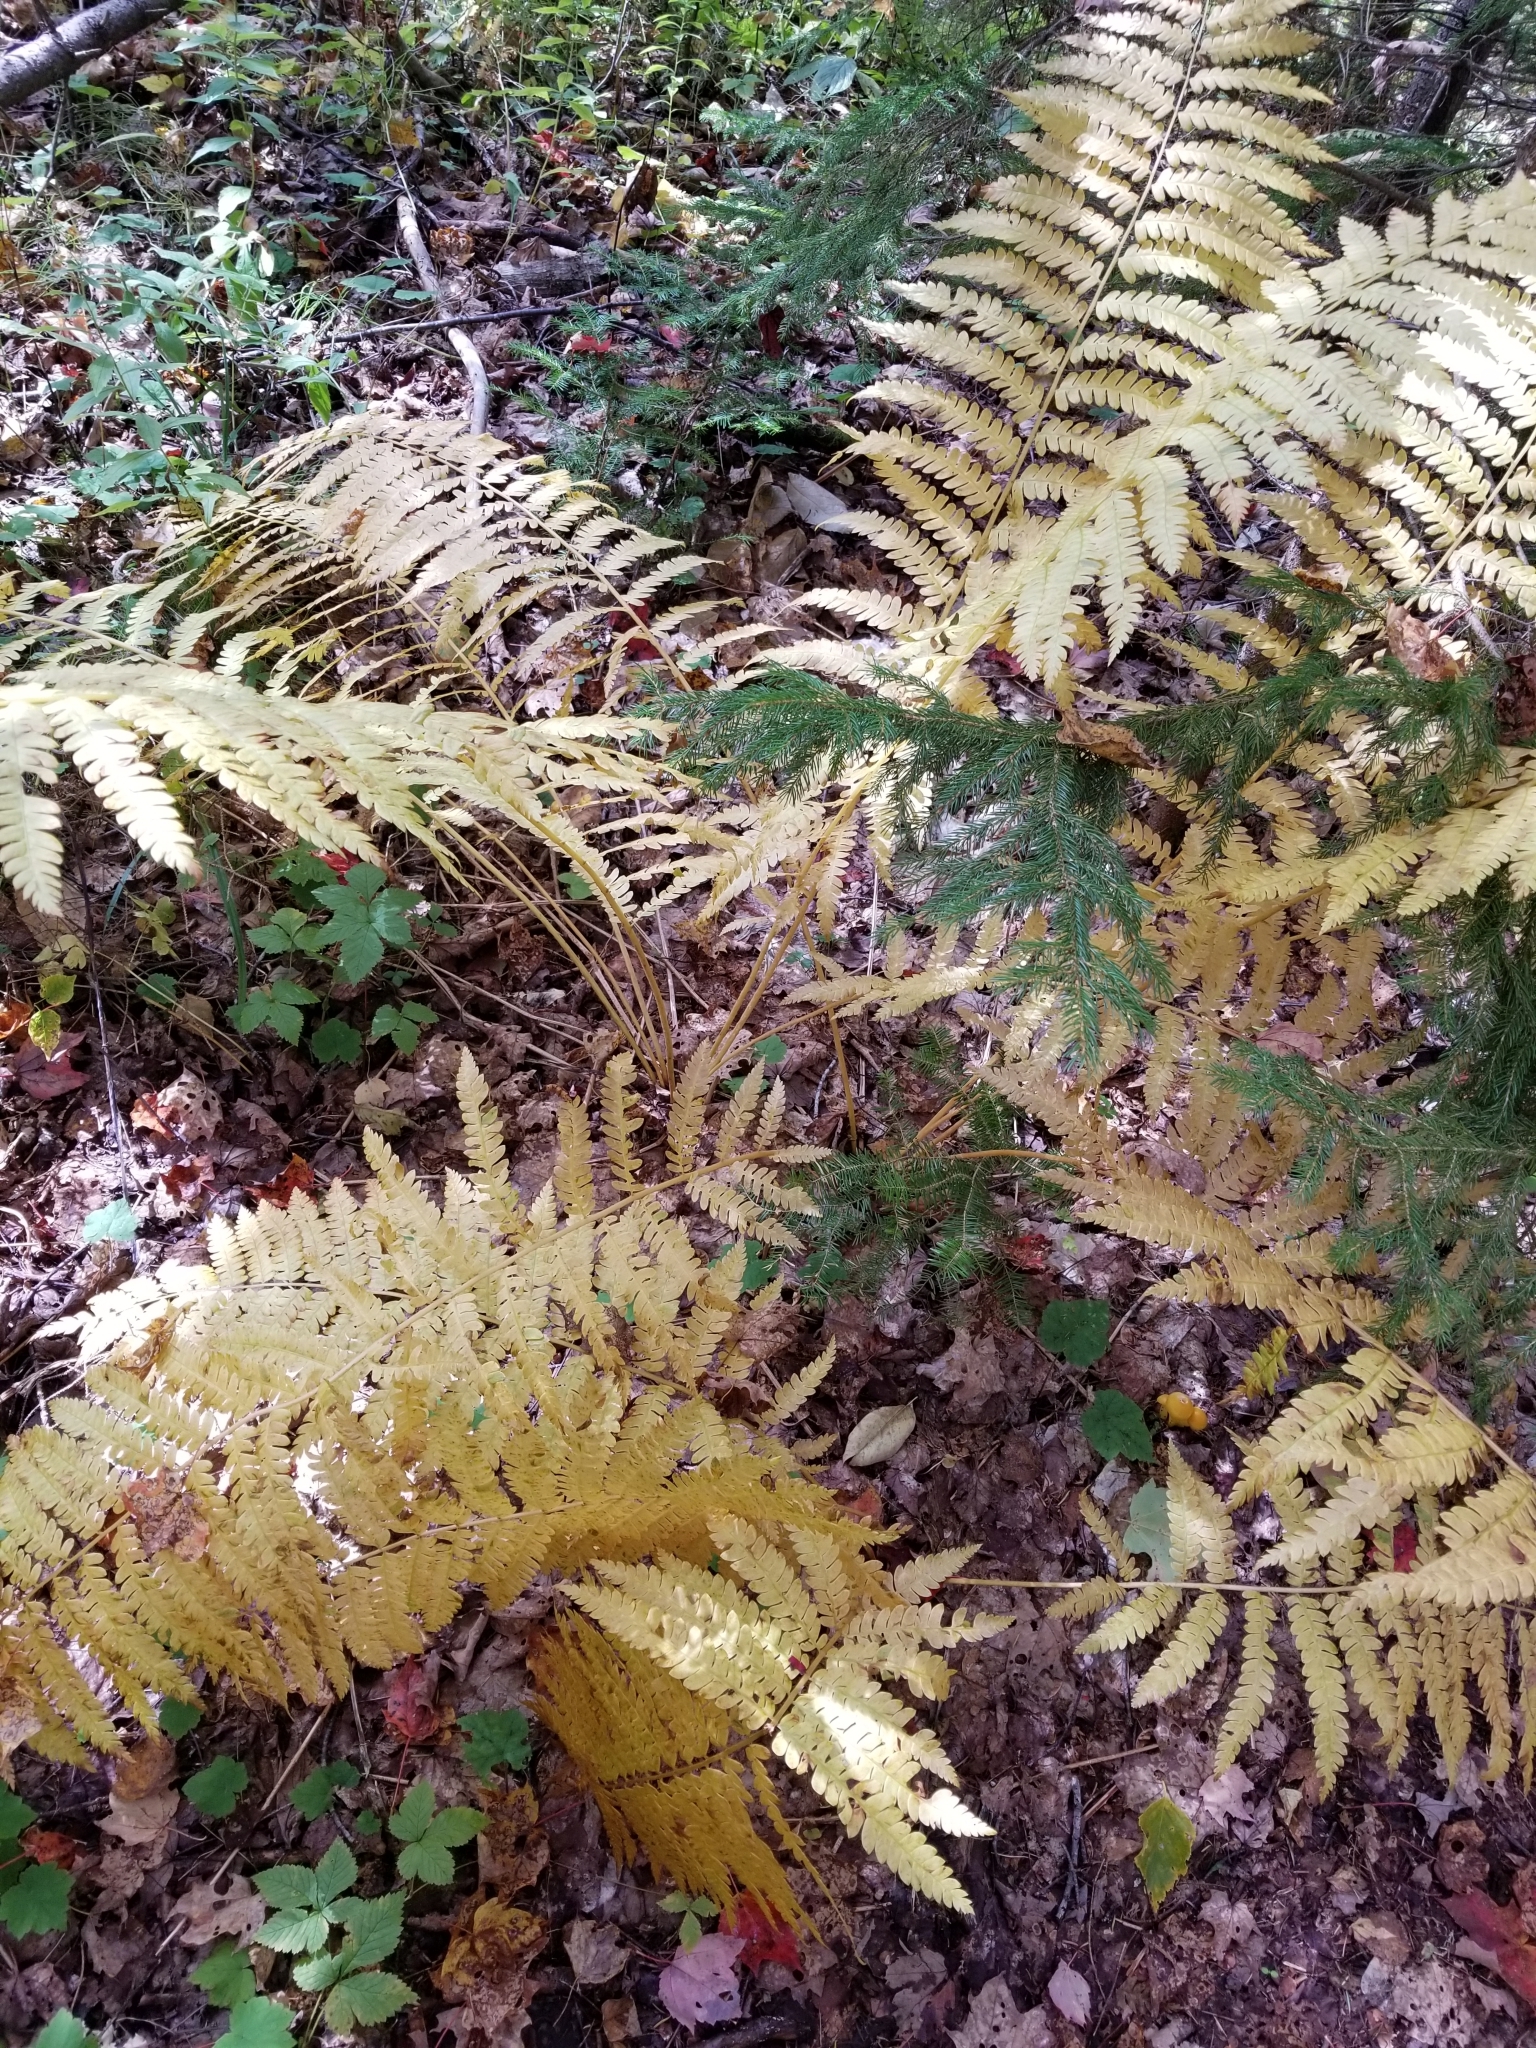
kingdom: Plantae
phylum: Tracheophyta
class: Polypodiopsida
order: Osmundales
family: Osmundaceae
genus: Osmundastrum
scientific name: Osmundastrum cinnamomeum
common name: Cinnamon fern
